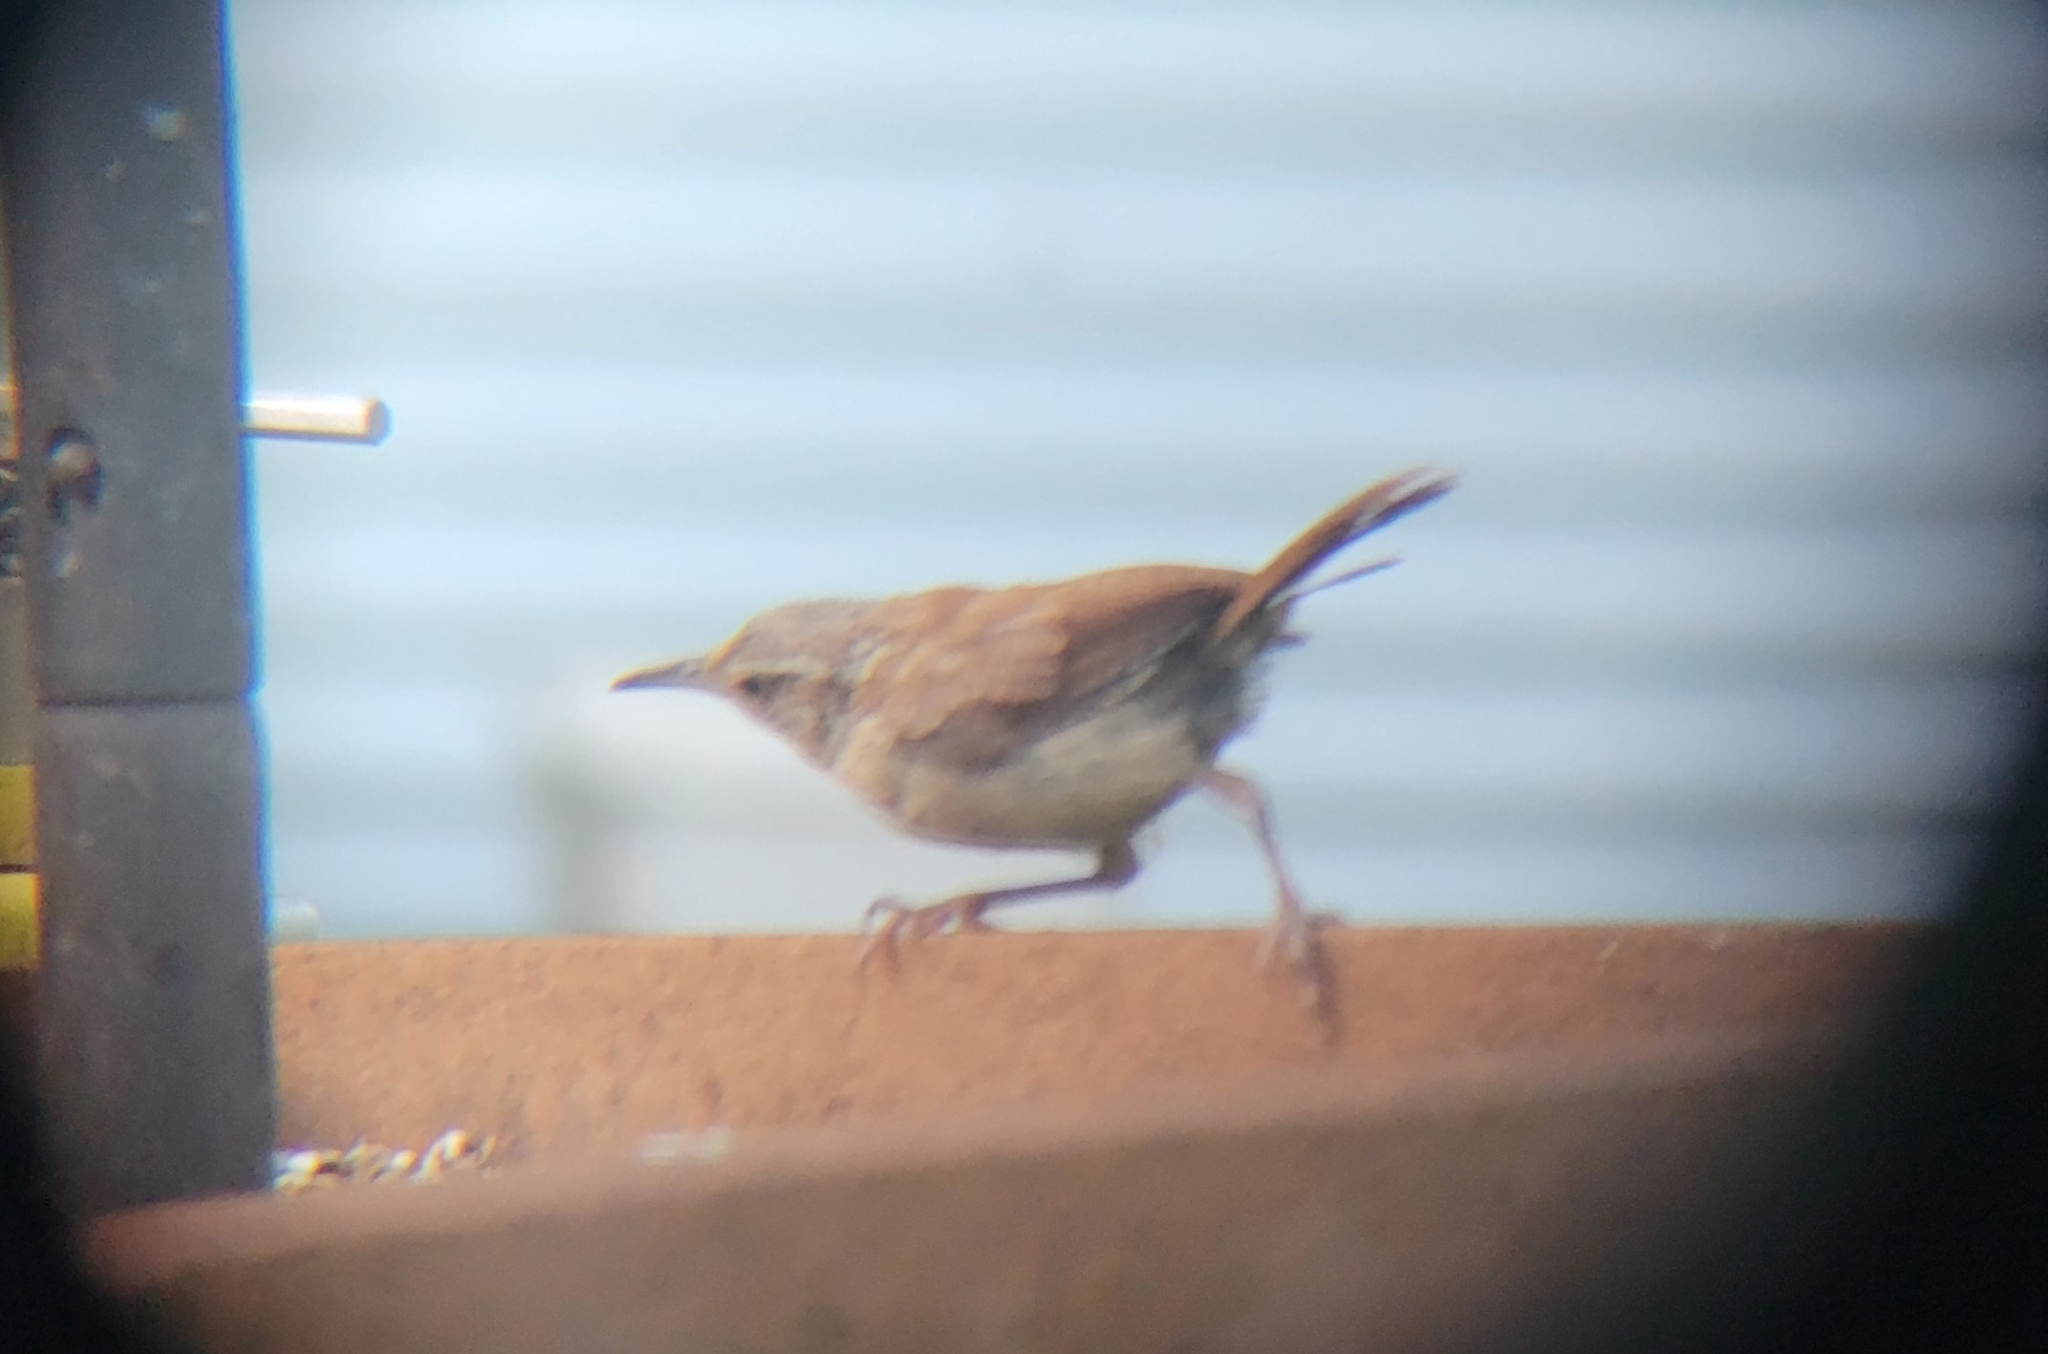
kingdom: Animalia
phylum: Chordata
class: Aves
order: Passeriformes
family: Troglodytidae
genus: Thryothorus
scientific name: Thryothorus ludovicianus
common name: Carolina wren
